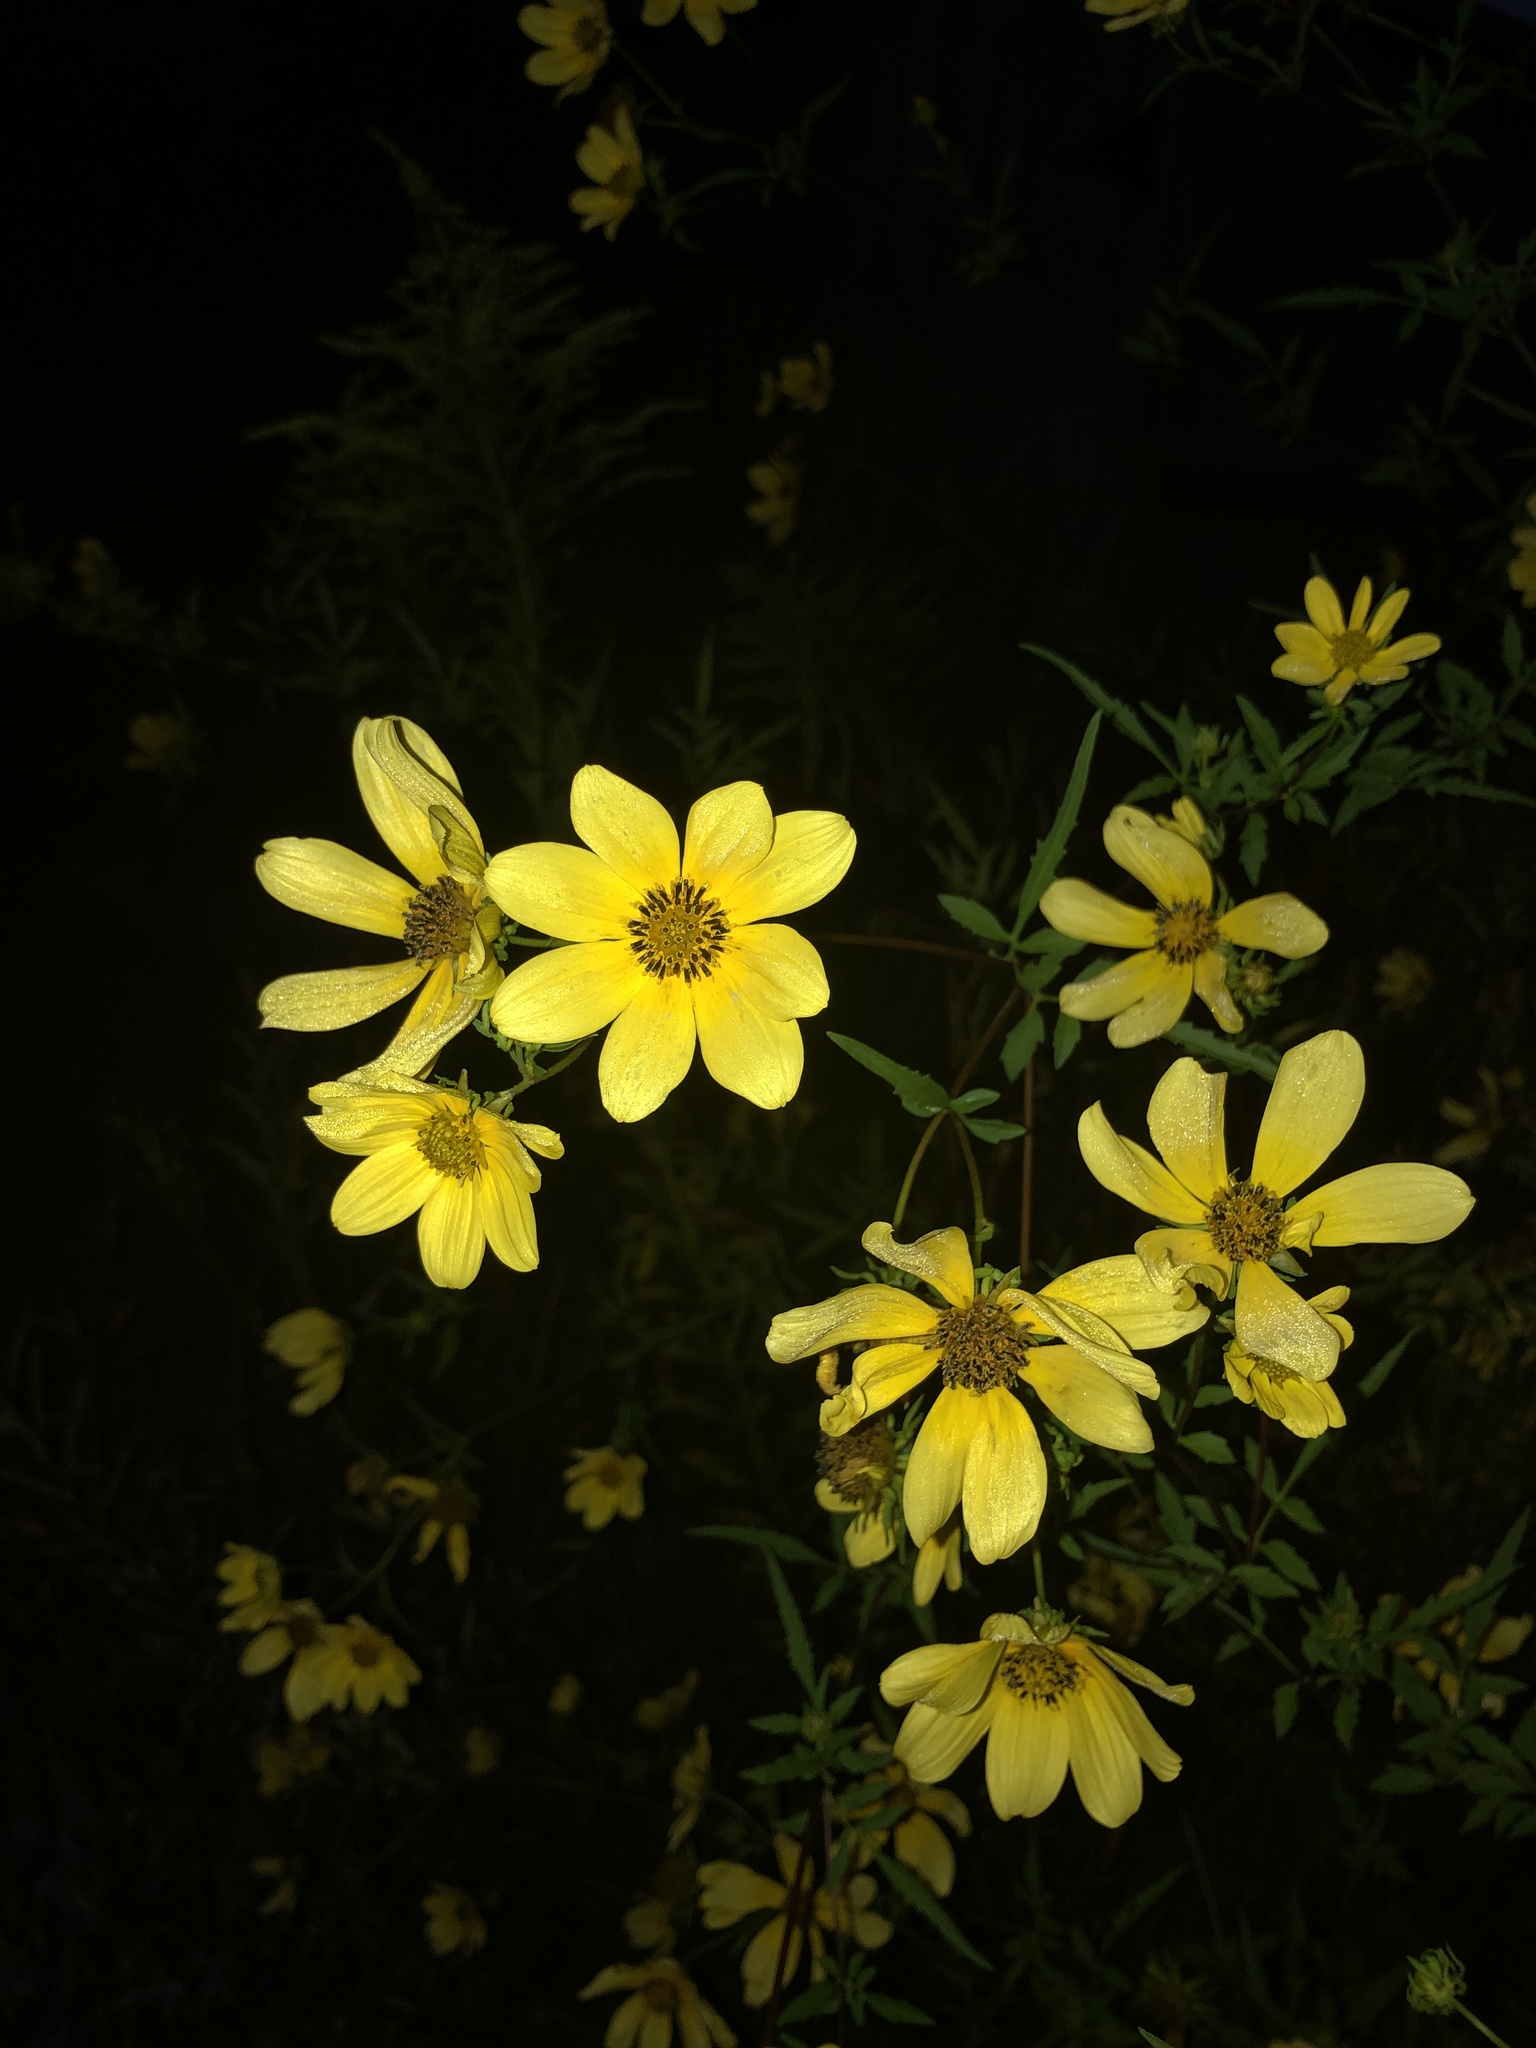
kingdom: Plantae
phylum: Tracheophyta
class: Magnoliopsida
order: Asterales
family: Asteraceae
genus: Bidens
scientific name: Bidens aristosa
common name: Western tickseed
